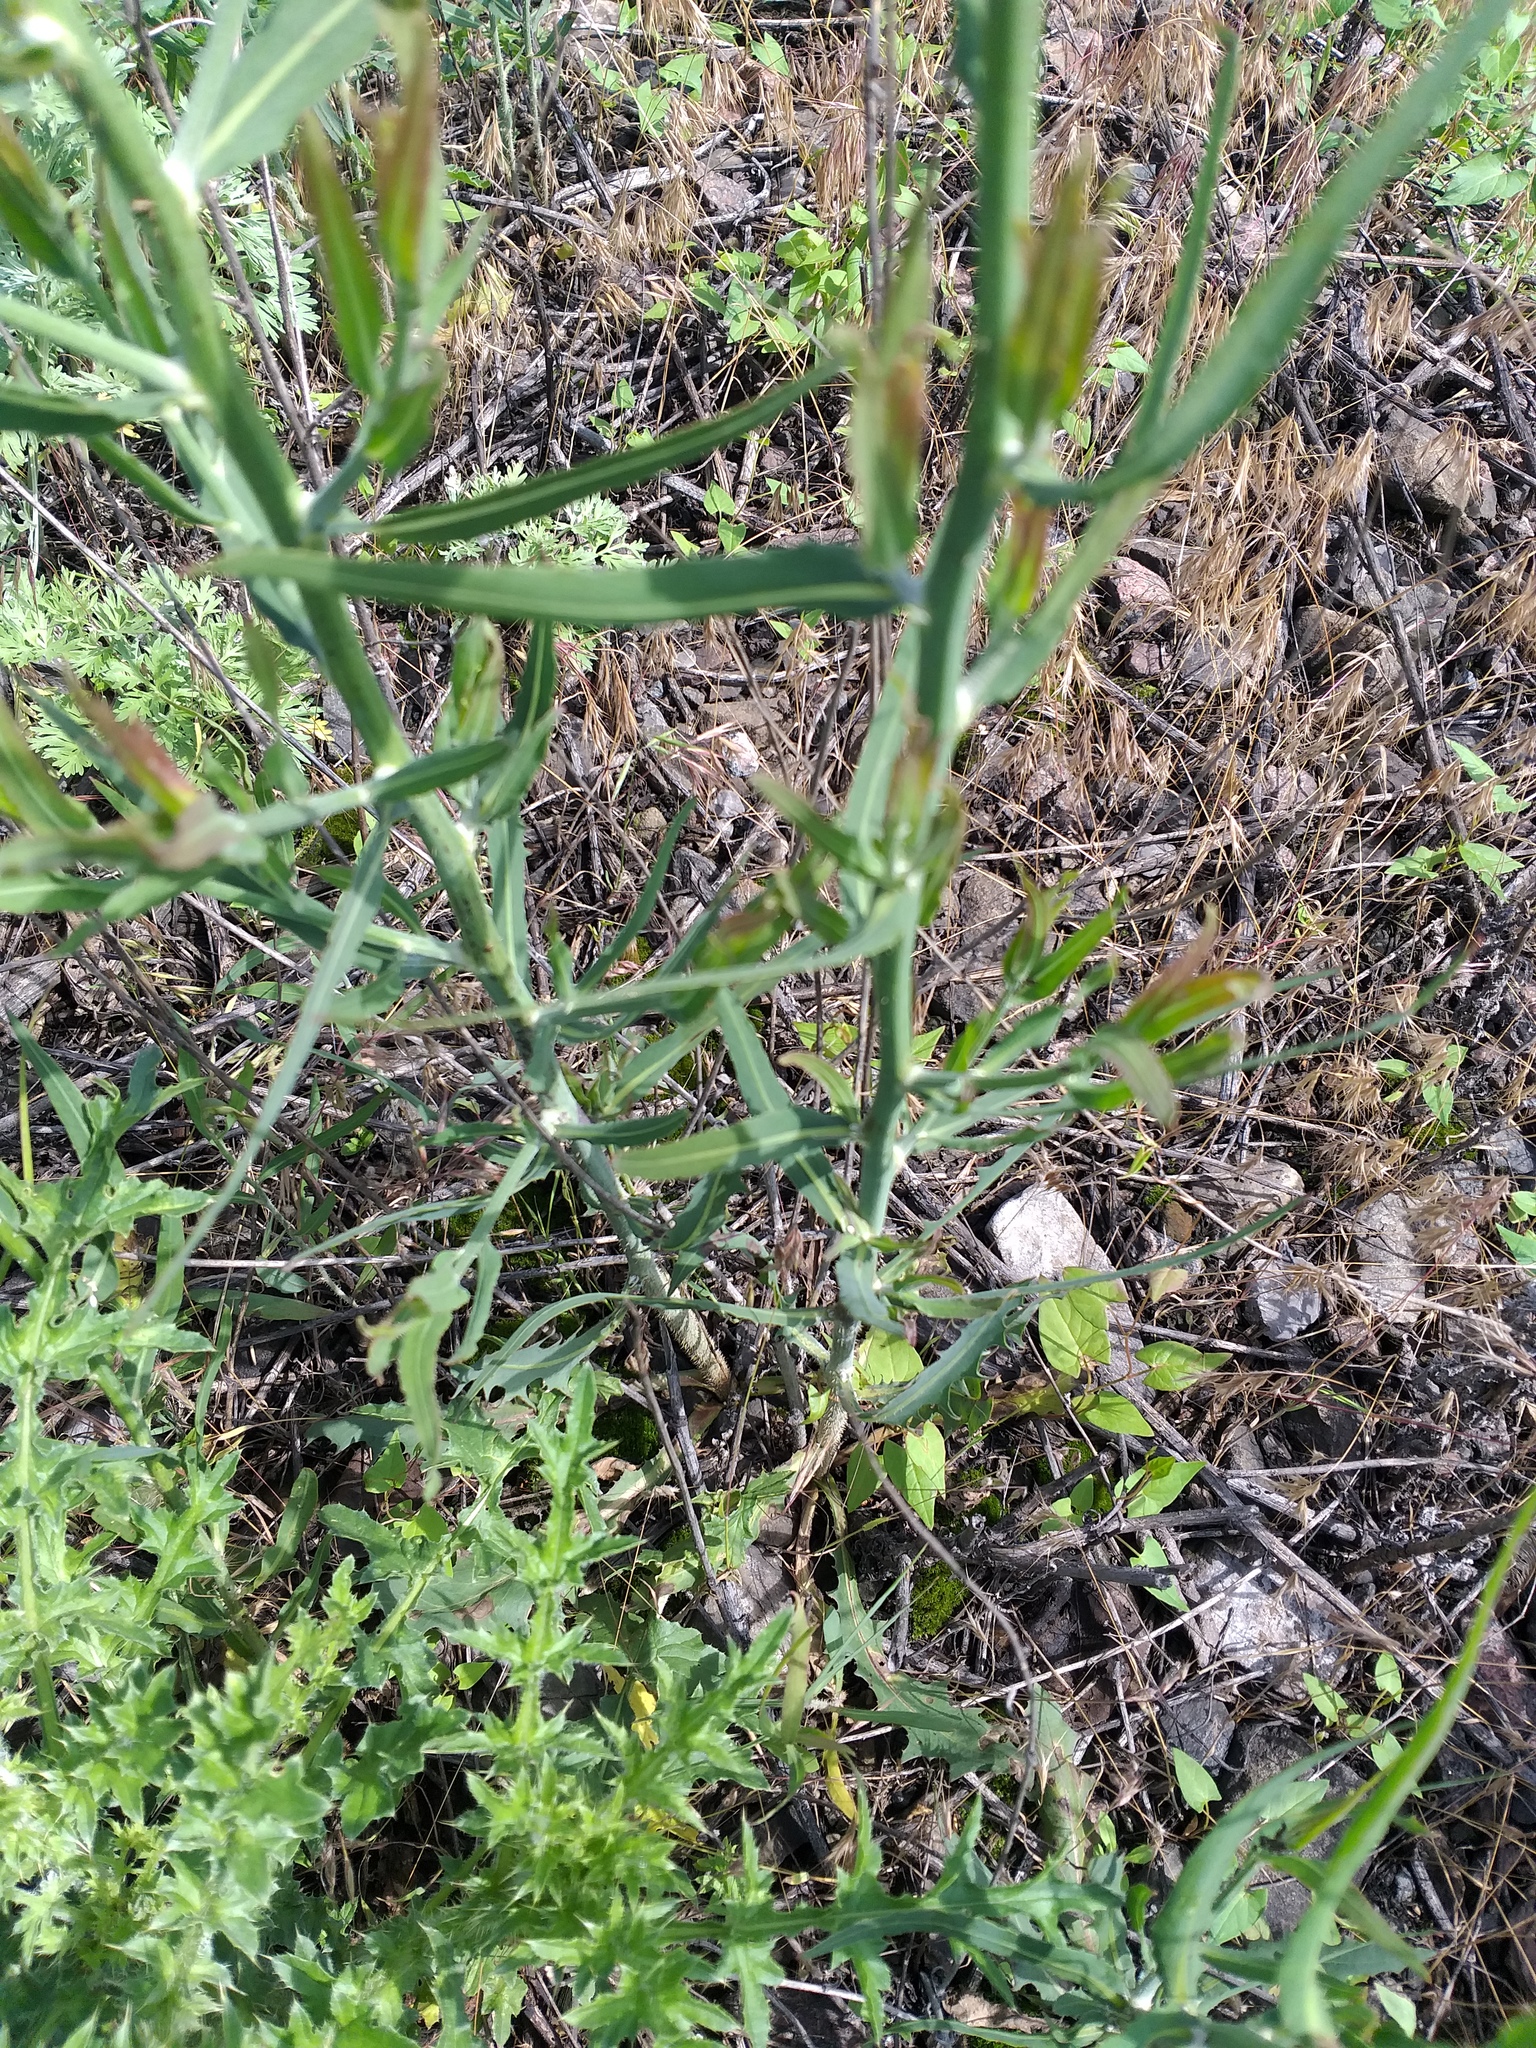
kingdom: Plantae
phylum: Tracheophyta
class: Magnoliopsida
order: Asterales
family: Asteraceae
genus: Chondrilla
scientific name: Chondrilla juncea
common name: Skeleton weed
